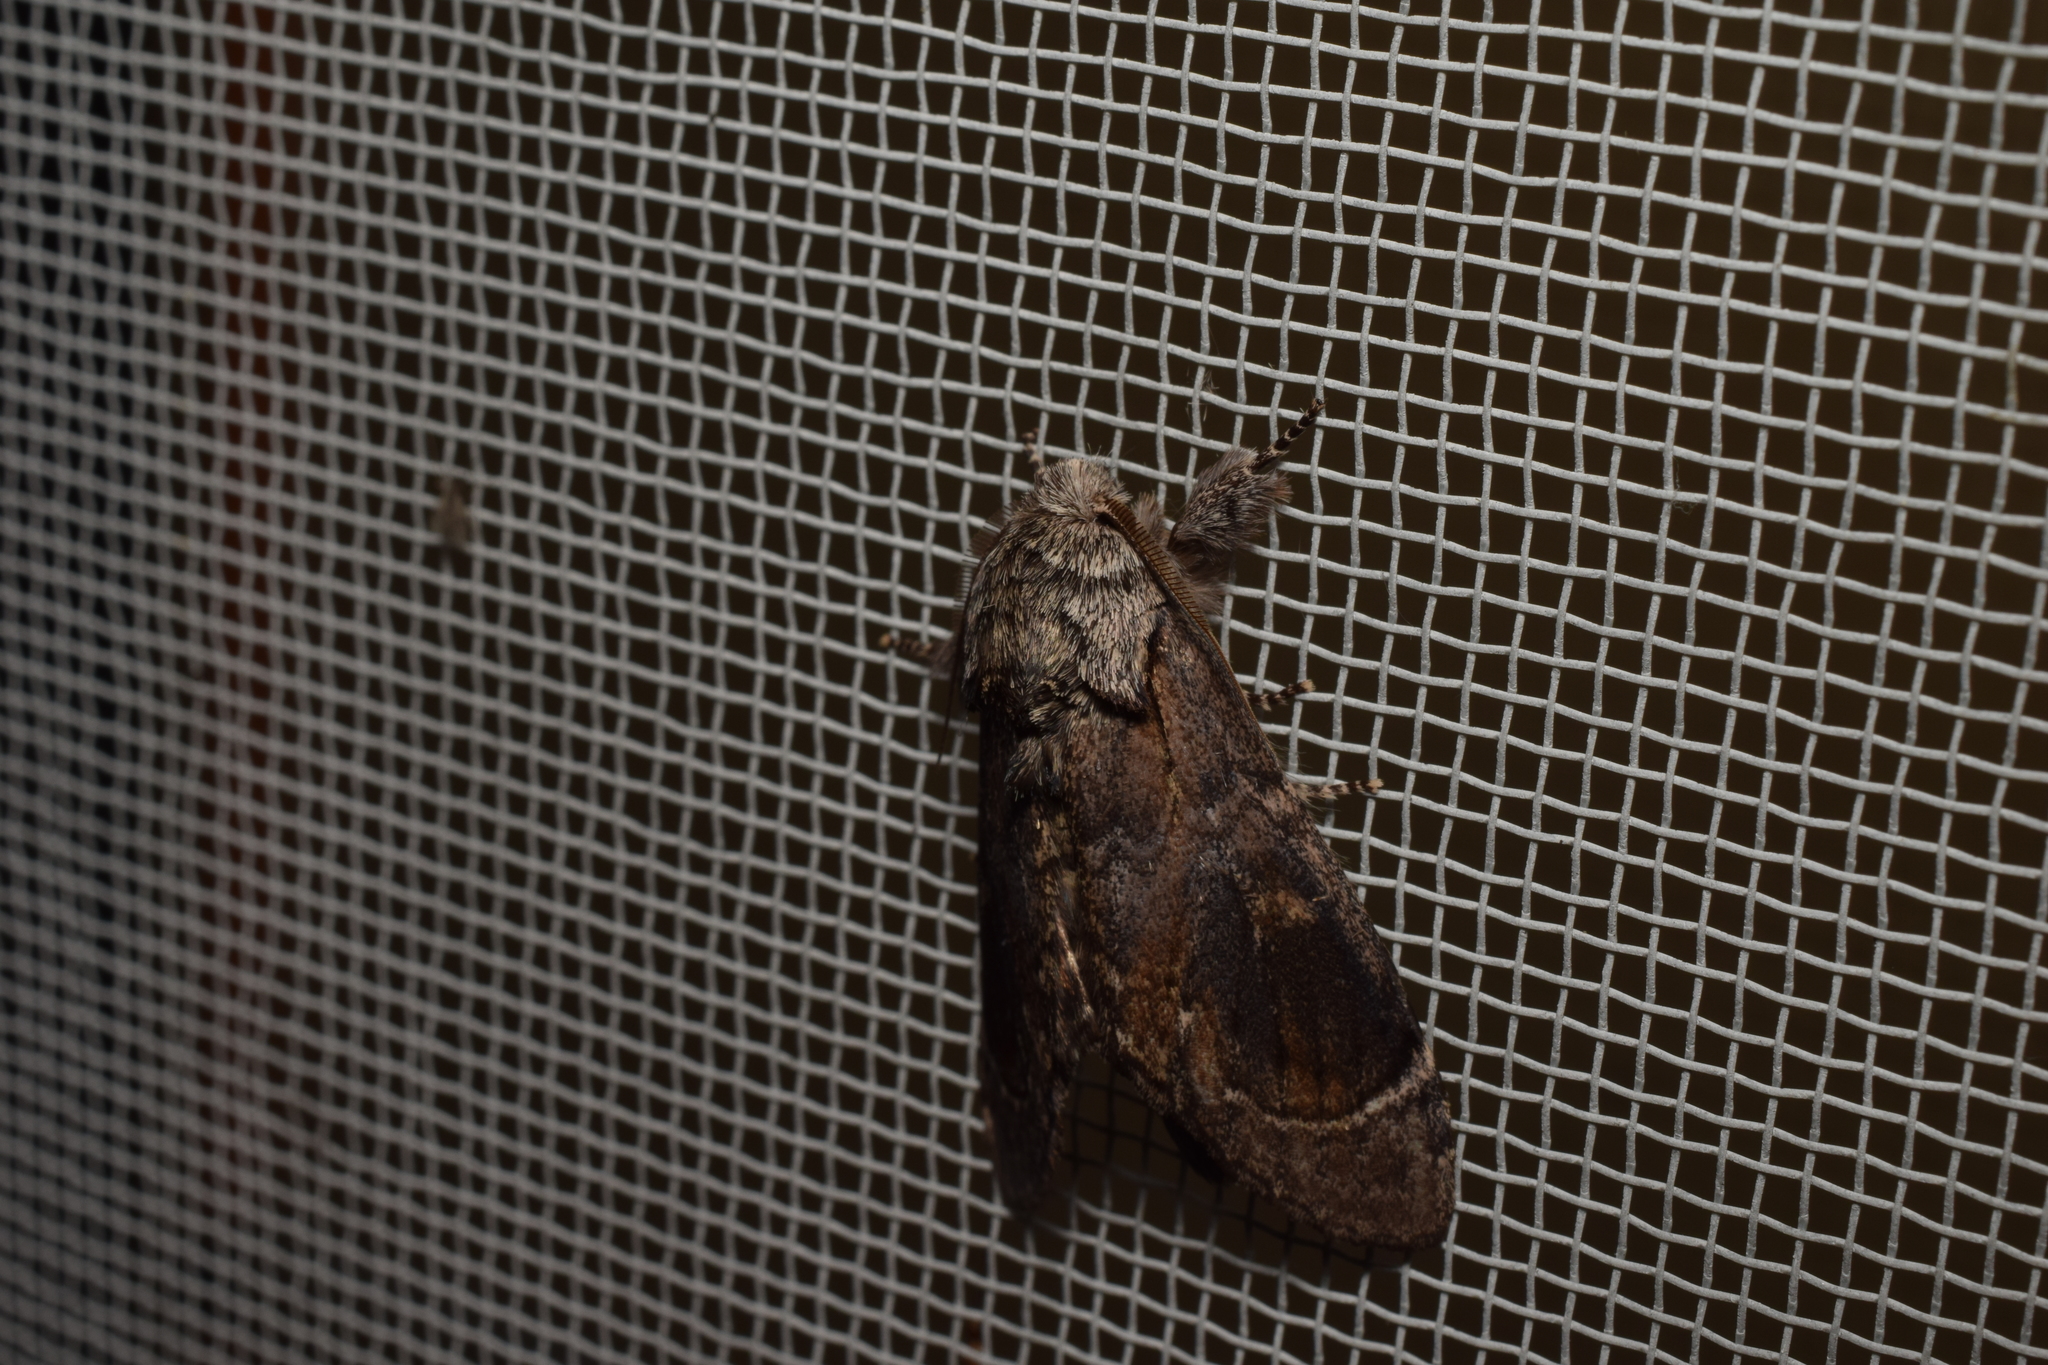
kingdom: Animalia
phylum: Arthropoda
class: Insecta
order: Lepidoptera
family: Notodontidae
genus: Fentonia
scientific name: Fentonia ocypete
